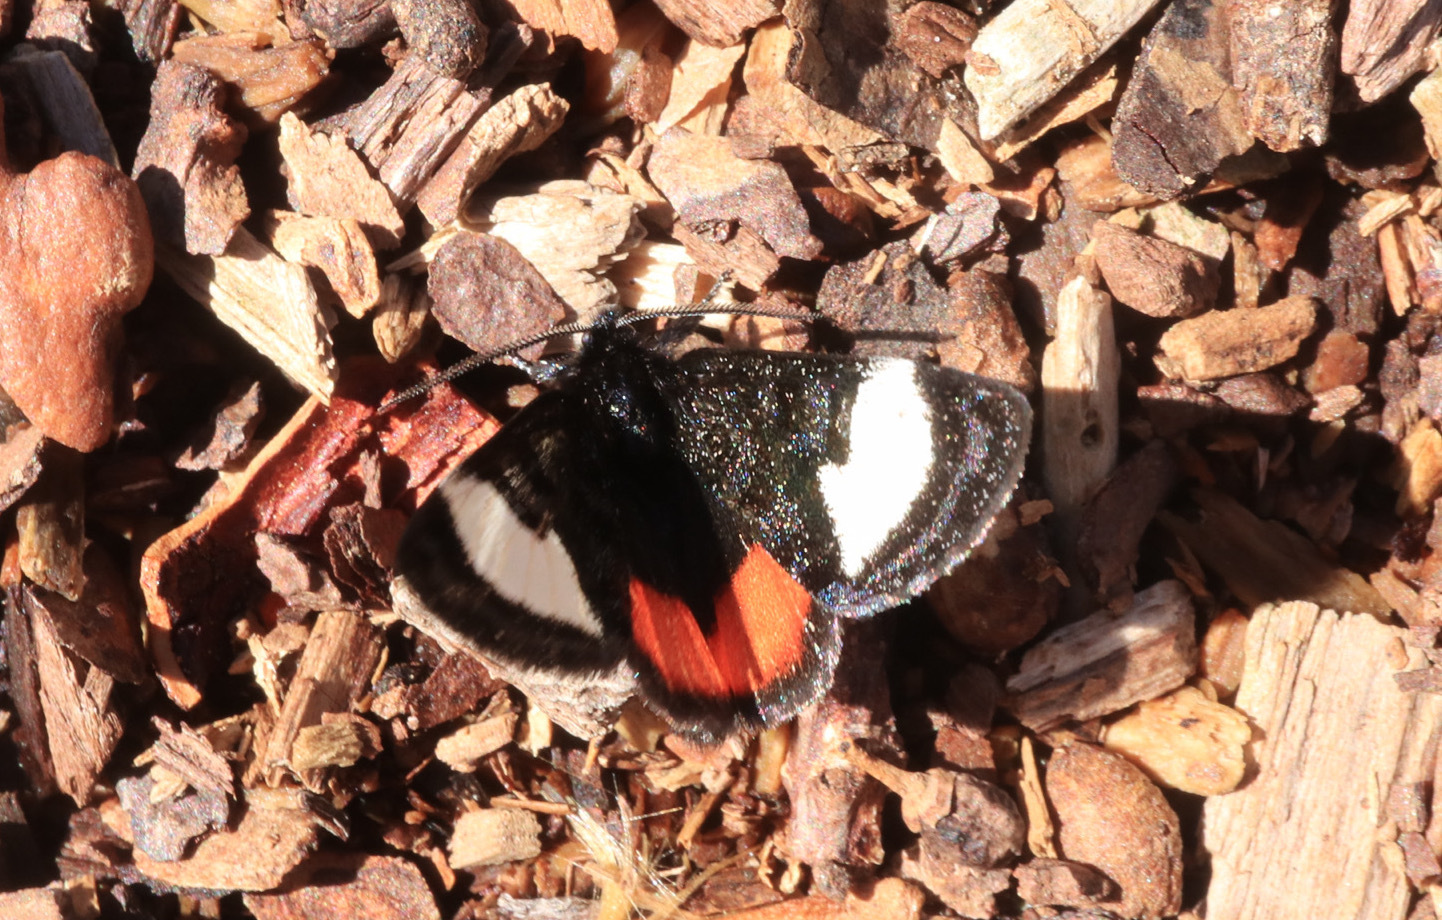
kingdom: Animalia
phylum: Arthropoda
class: Insecta
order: Lepidoptera
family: Noctuidae
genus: Psychomorpha
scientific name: Psychomorpha epimenis
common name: Grapevine epimenis moth
